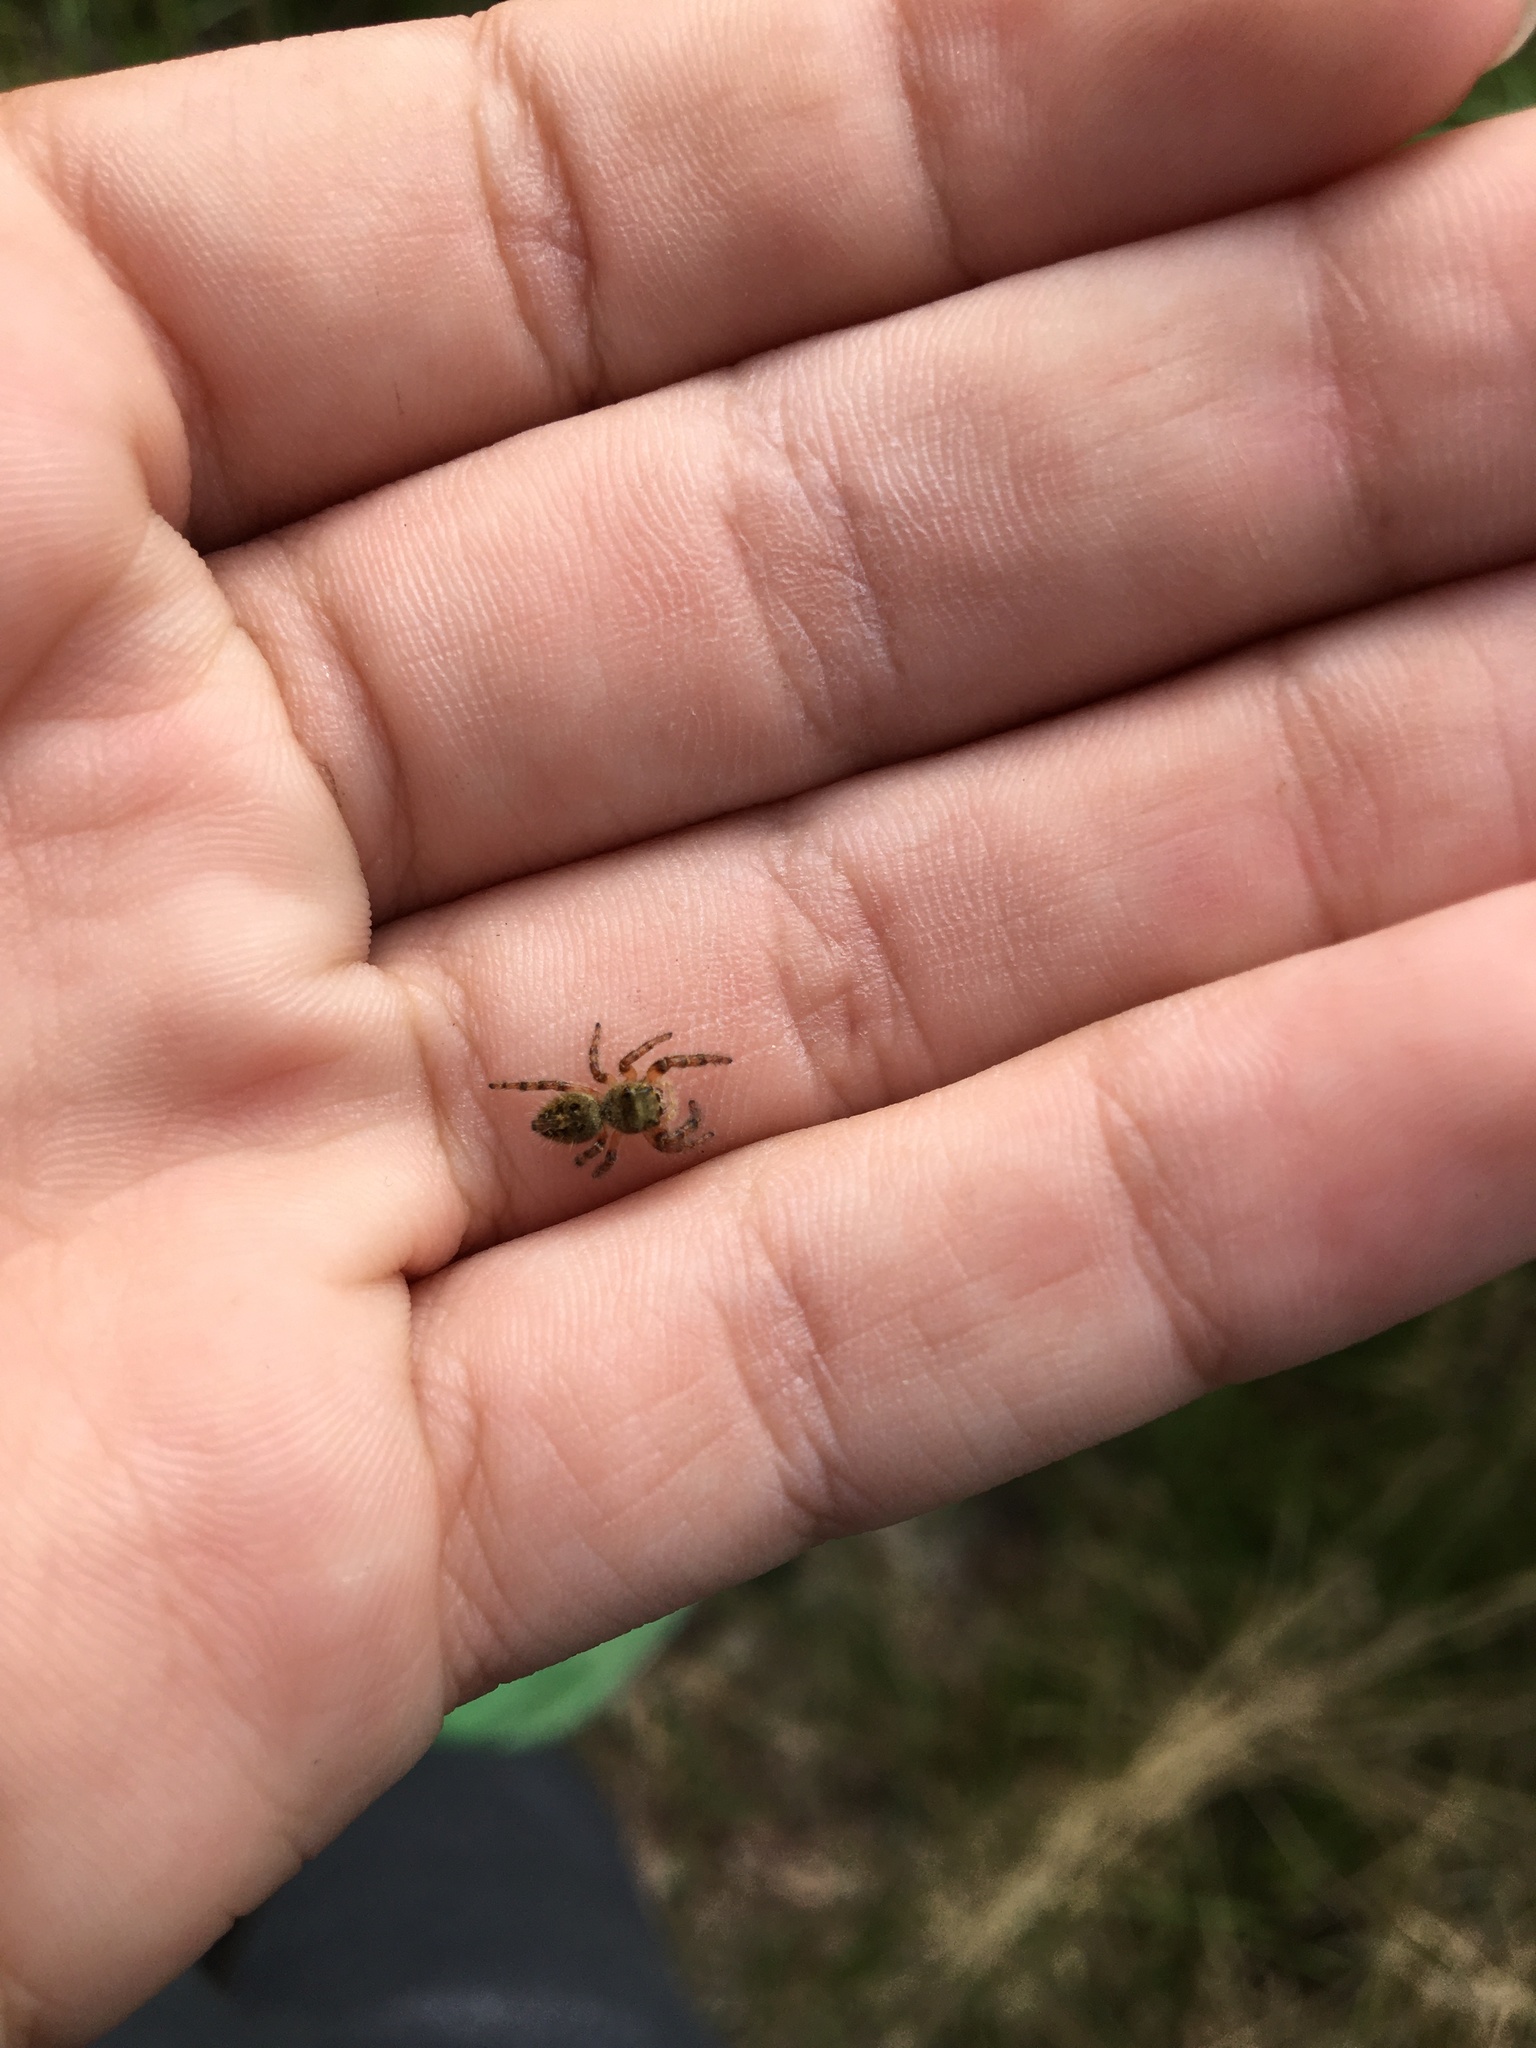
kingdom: Animalia
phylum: Arthropoda
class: Arachnida
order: Araneae
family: Salticidae
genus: Phidippus
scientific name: Phidippus princeps
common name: Grayish jumping spider
